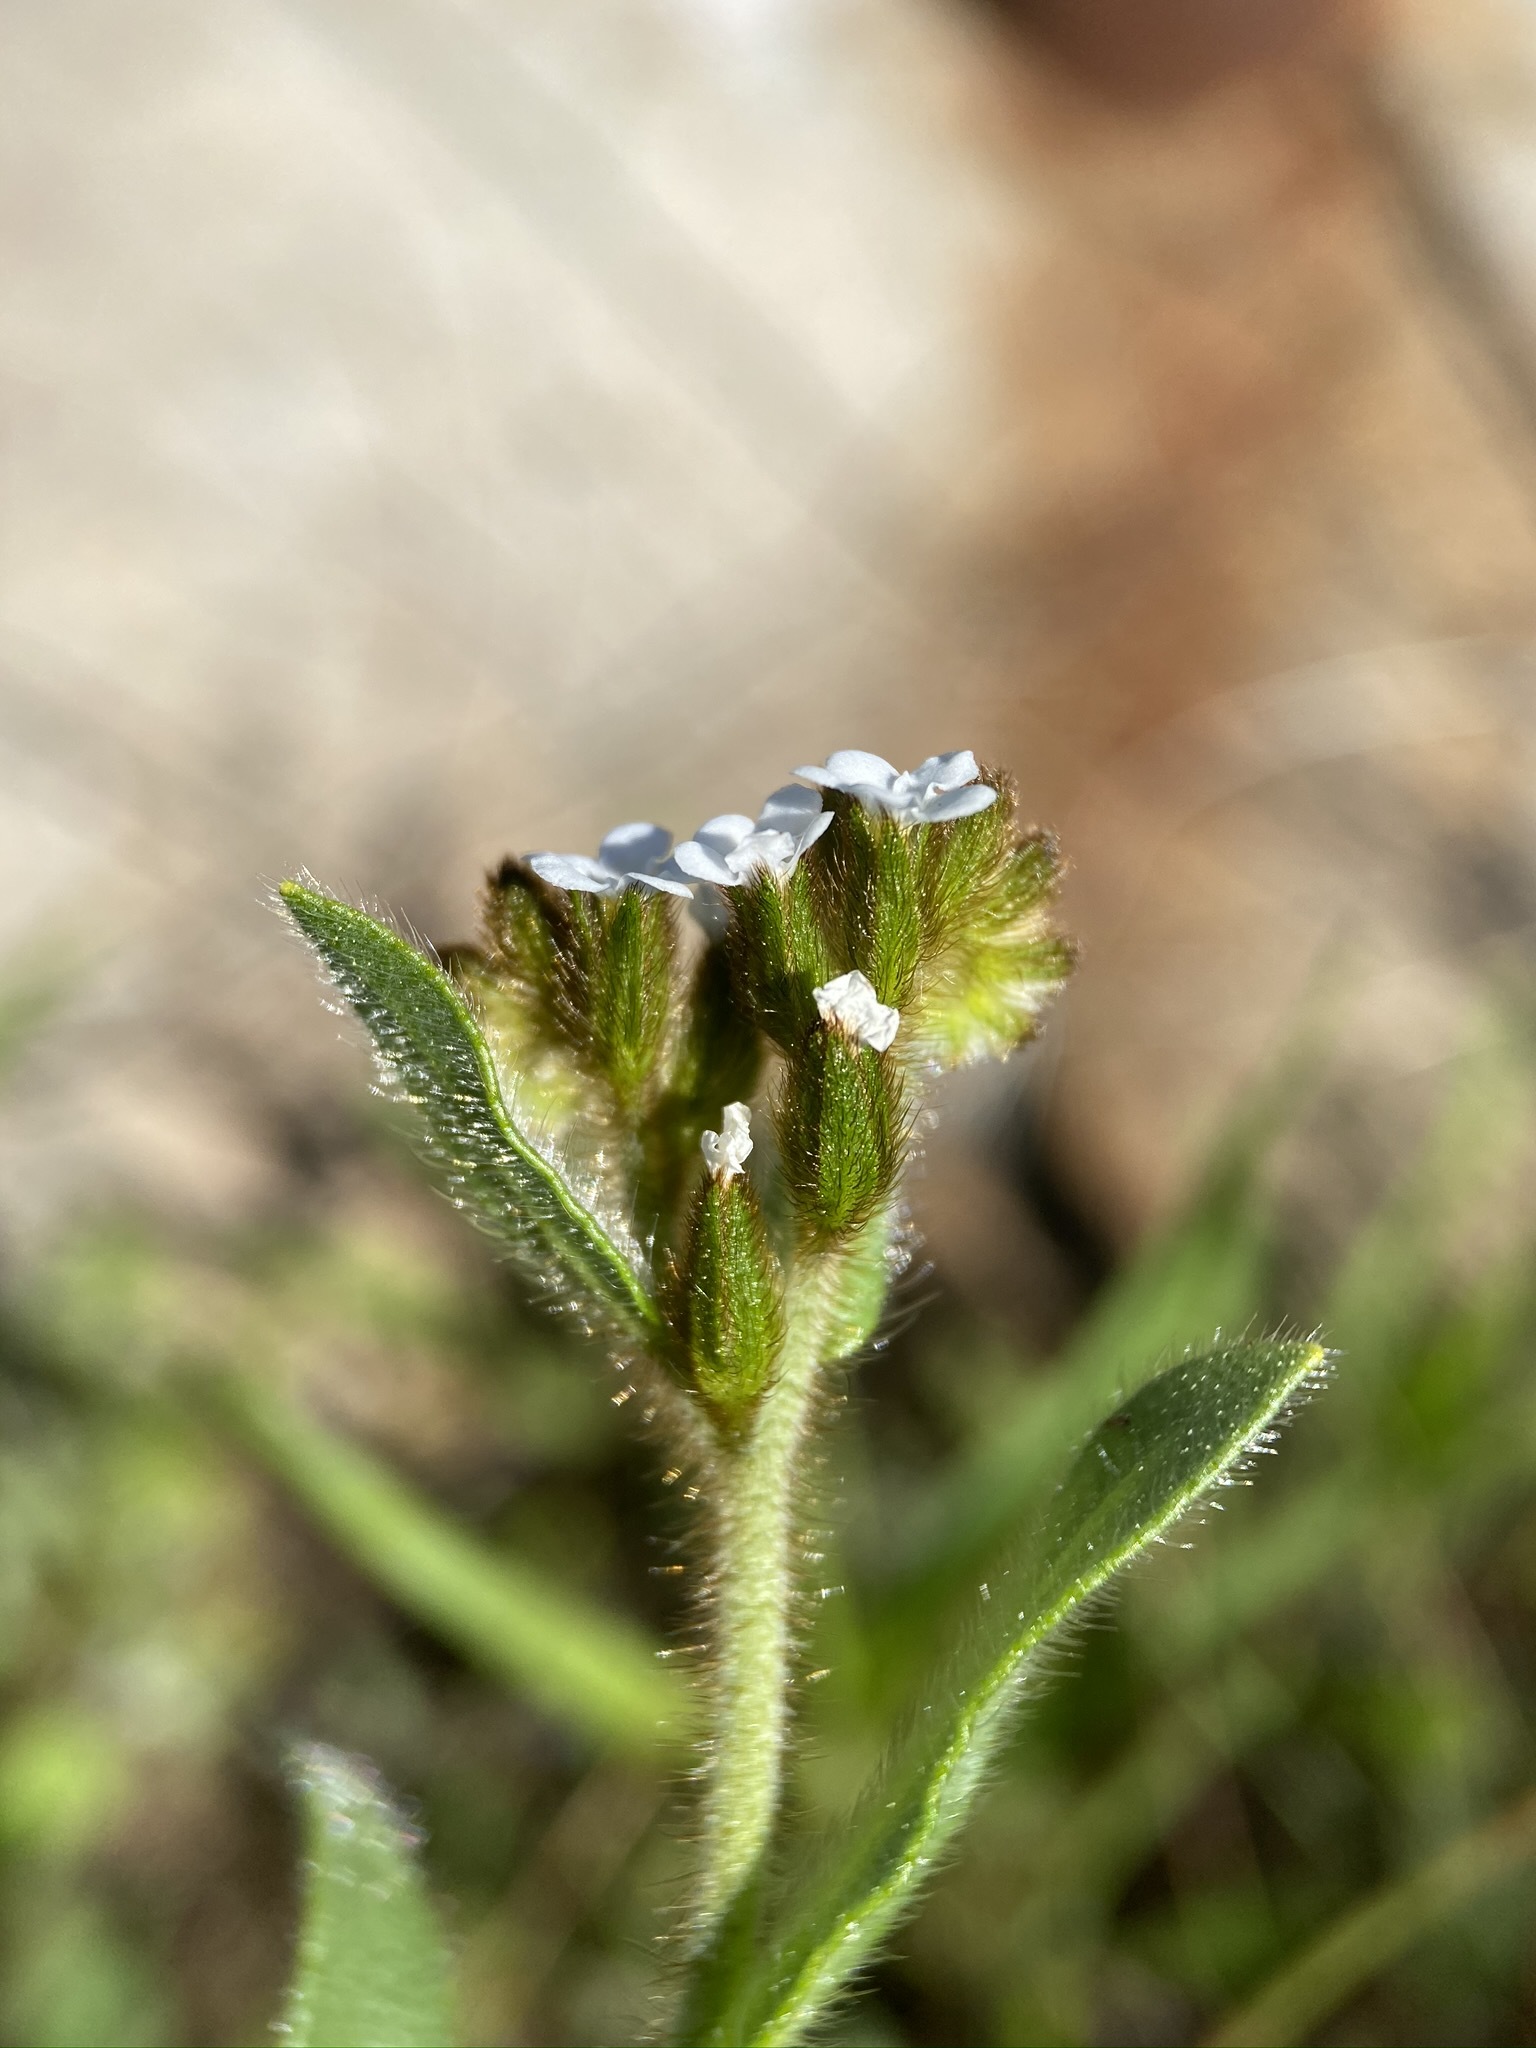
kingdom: Plantae
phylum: Tracheophyta
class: Magnoliopsida
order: Boraginales
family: Boraginaceae
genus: Plagiobothrys
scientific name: Plagiobothrys fulvus
